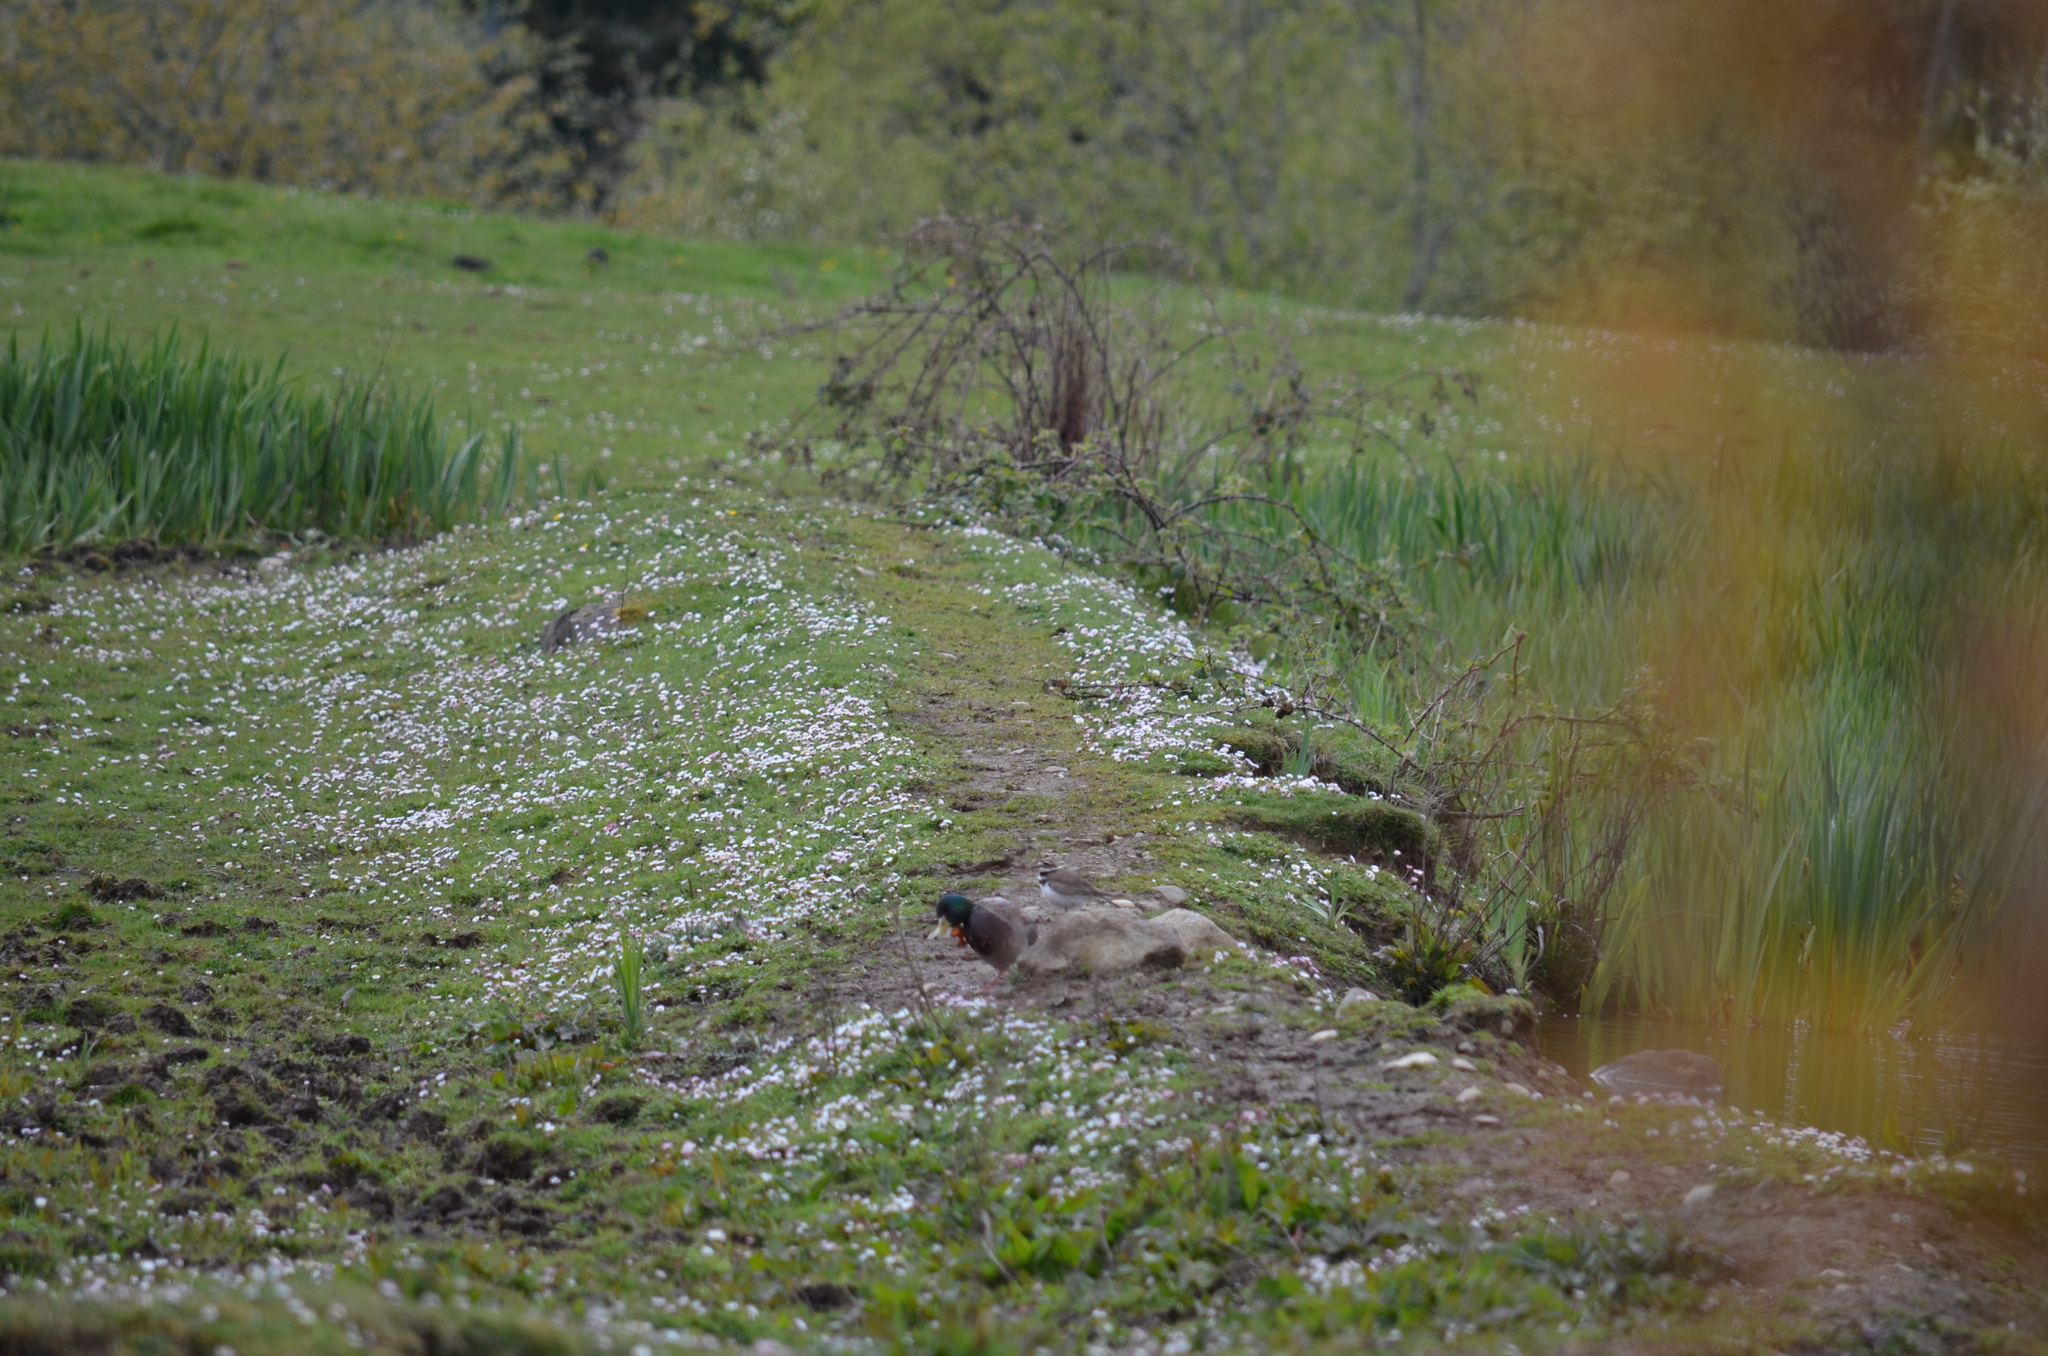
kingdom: Animalia
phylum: Chordata
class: Aves
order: Charadriiformes
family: Charadriidae
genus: Charadrius
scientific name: Charadrius vociferus
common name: Killdeer
